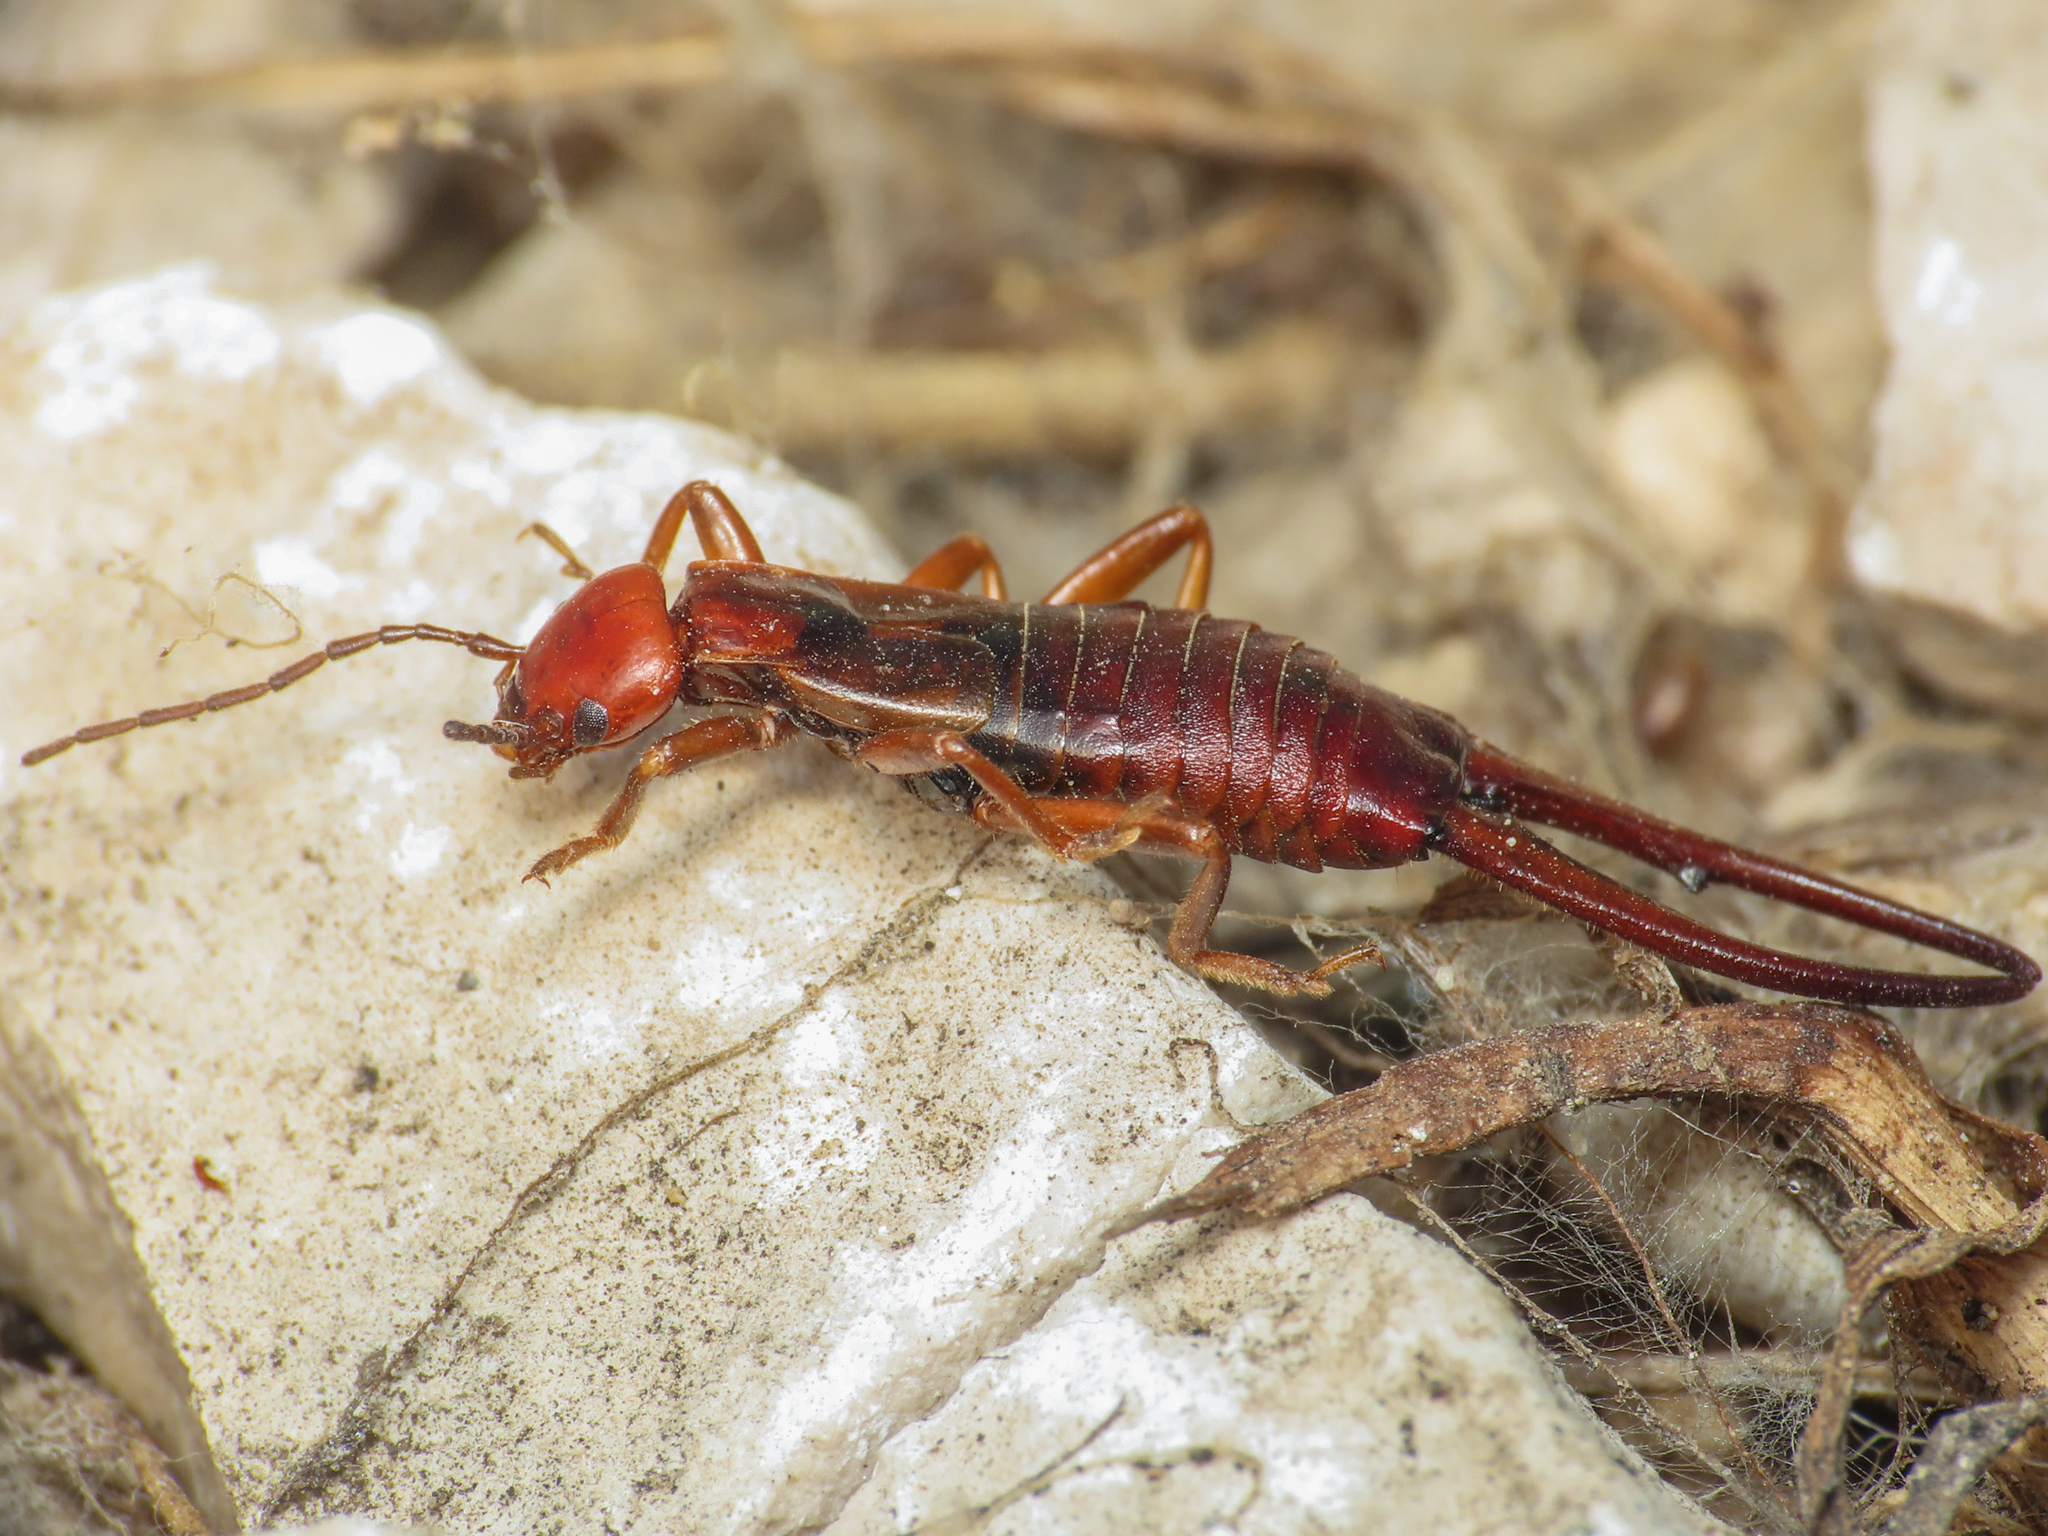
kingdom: Animalia
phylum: Arthropoda
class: Insecta
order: Dermaptera
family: Forficulidae
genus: Forficula
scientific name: Forficula apennina
